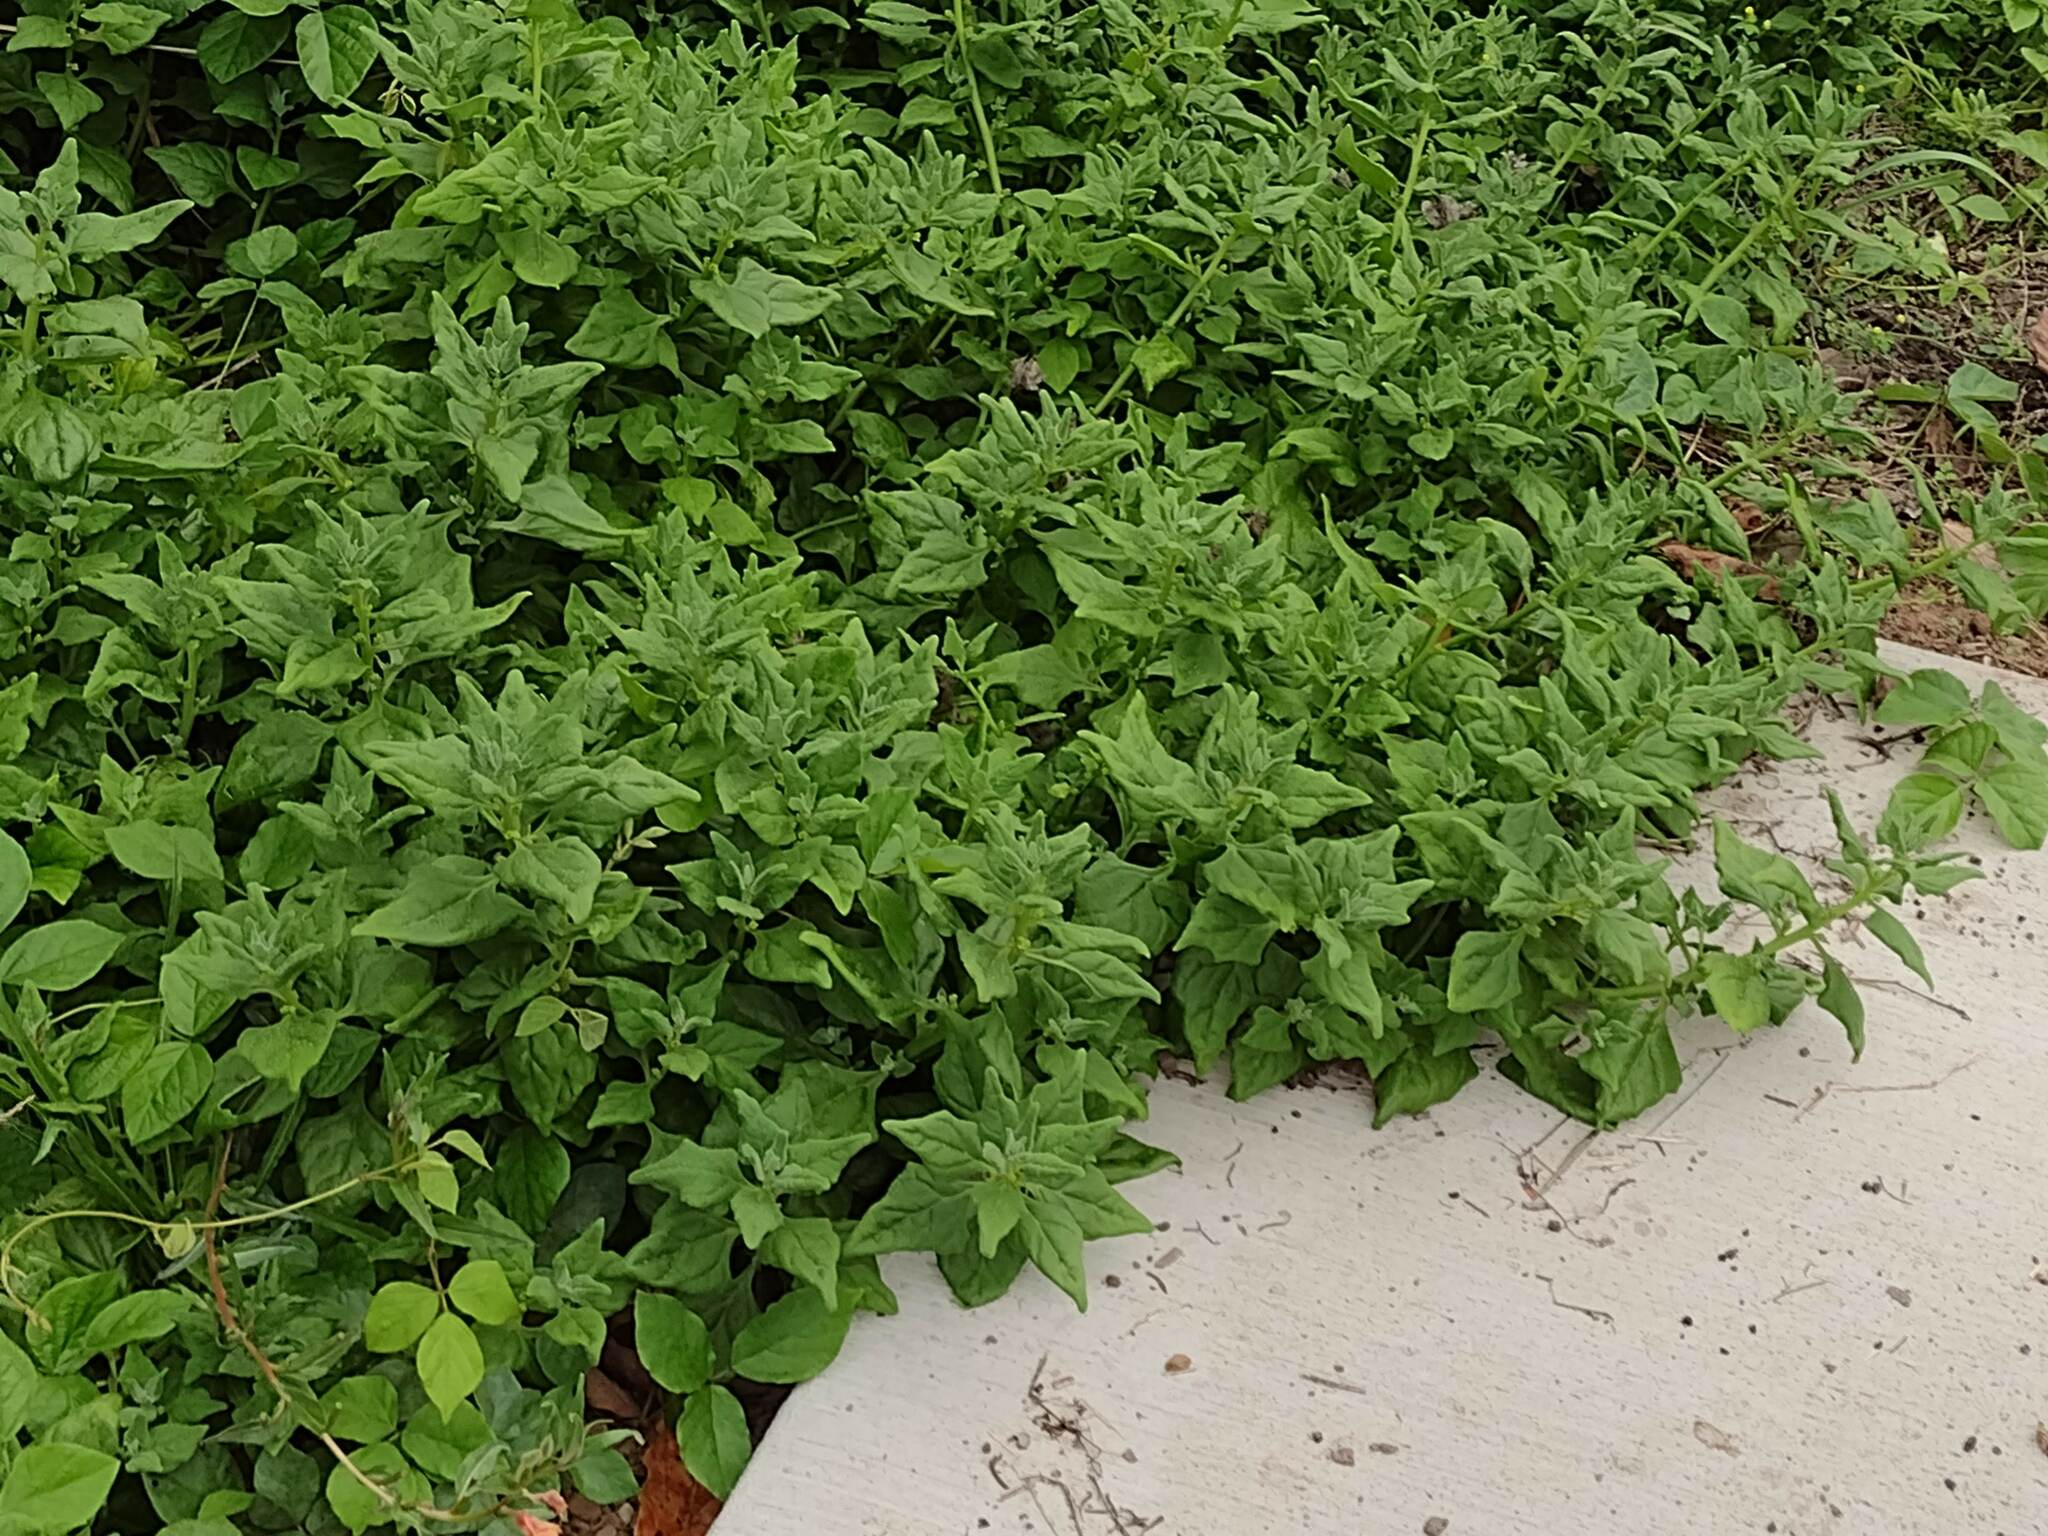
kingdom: Plantae
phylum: Tracheophyta
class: Magnoliopsida
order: Caryophyllales
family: Aizoaceae
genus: Tetragonia
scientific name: Tetragonia tetragonoides
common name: New zealand-spinach
